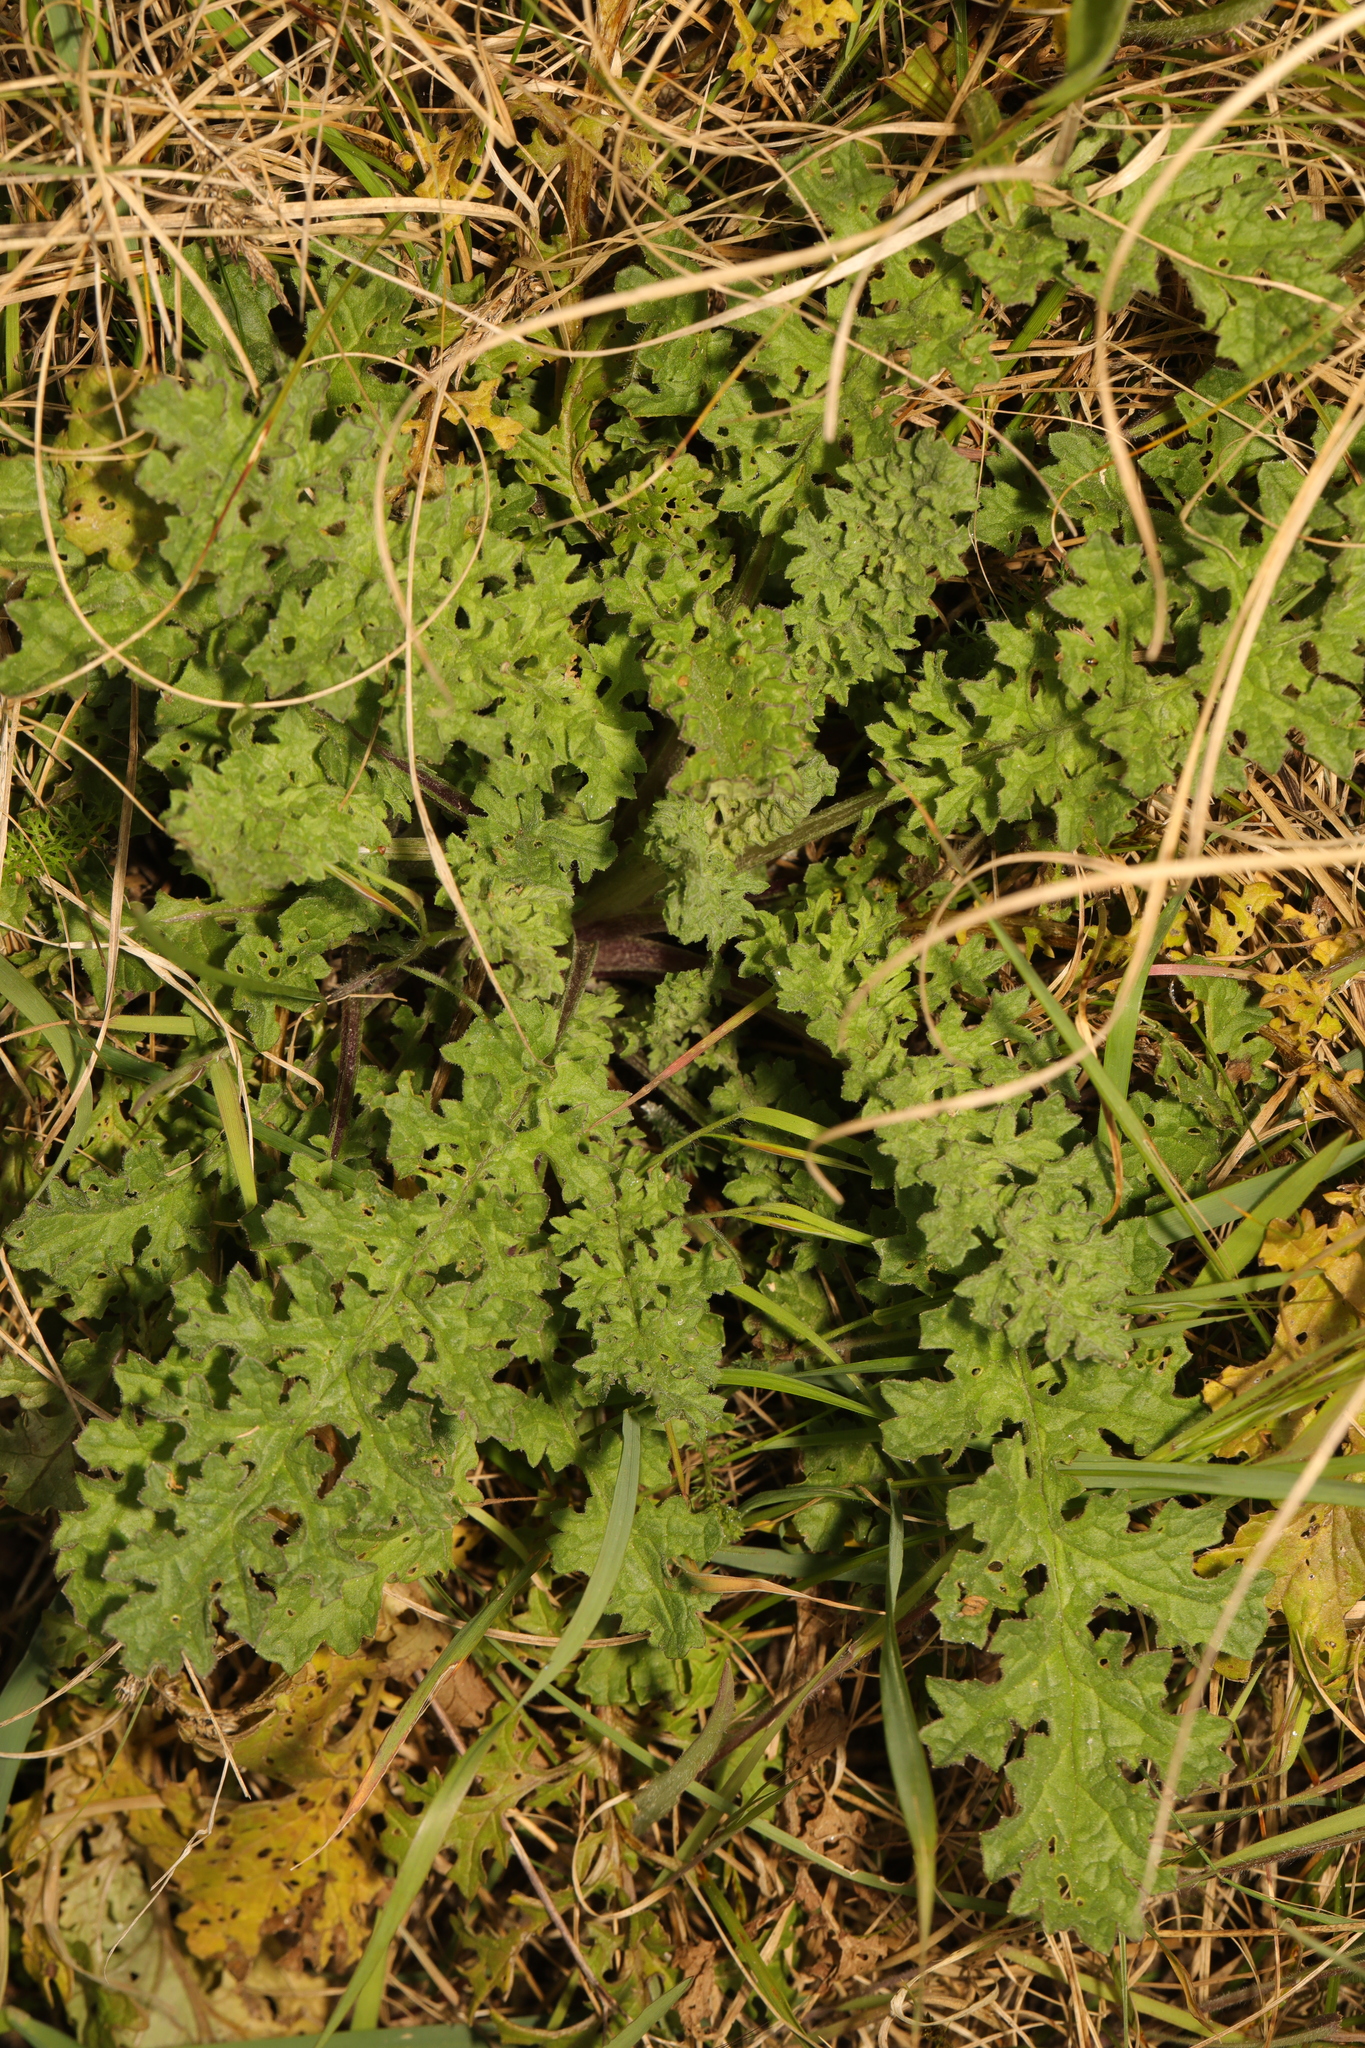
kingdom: Plantae
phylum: Tracheophyta
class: Magnoliopsida
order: Asterales
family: Asteraceae
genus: Jacobaea
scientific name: Jacobaea vulgaris
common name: Stinking willie
